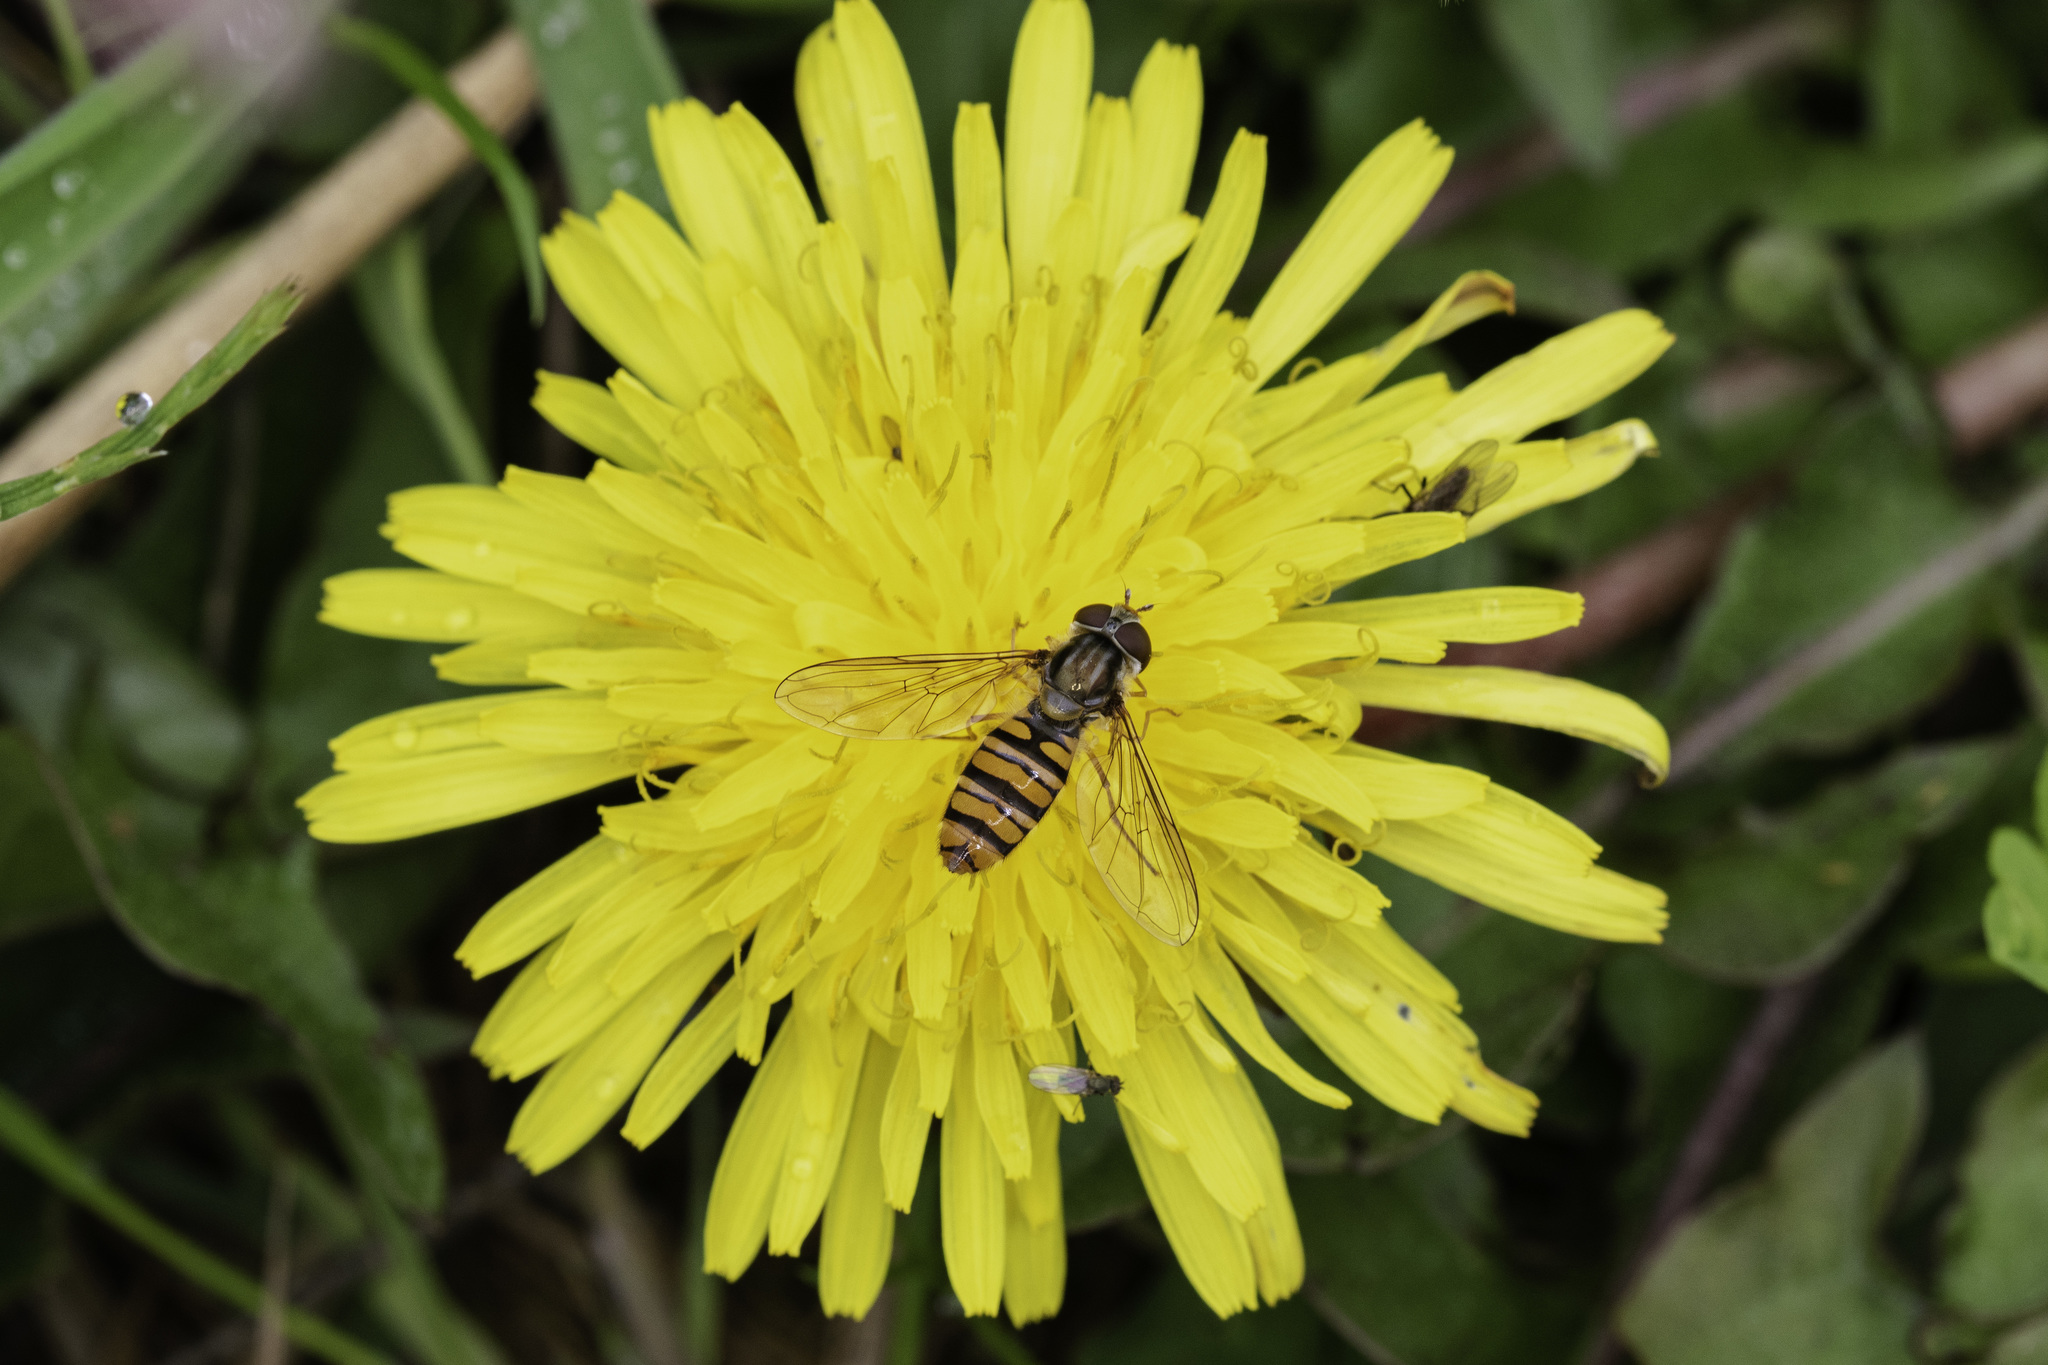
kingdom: Animalia
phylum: Arthropoda
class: Insecta
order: Diptera
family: Syrphidae
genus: Episyrphus
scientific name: Episyrphus balteatus
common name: Marmalade hoverfly
